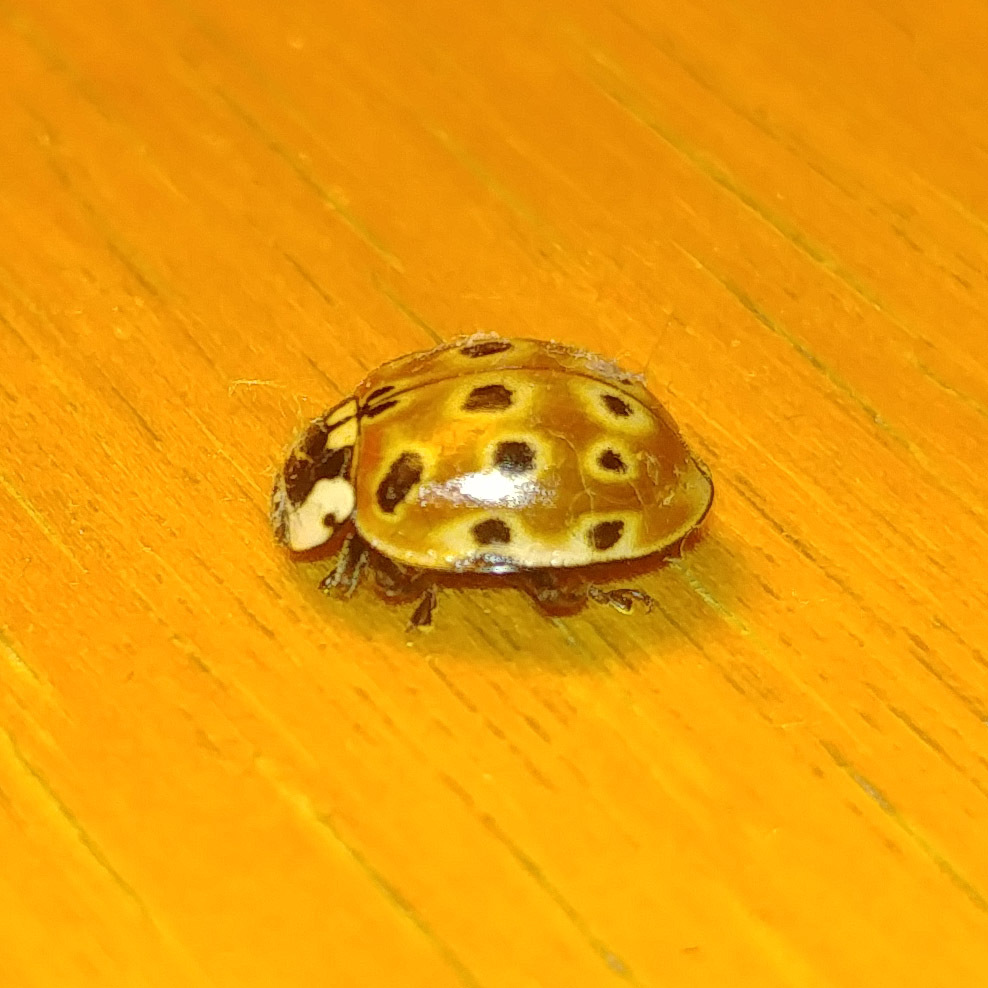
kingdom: Animalia
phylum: Arthropoda
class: Insecta
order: Coleoptera
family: Coccinellidae
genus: Anatis
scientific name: Anatis ocellata
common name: Eyed ladybird
